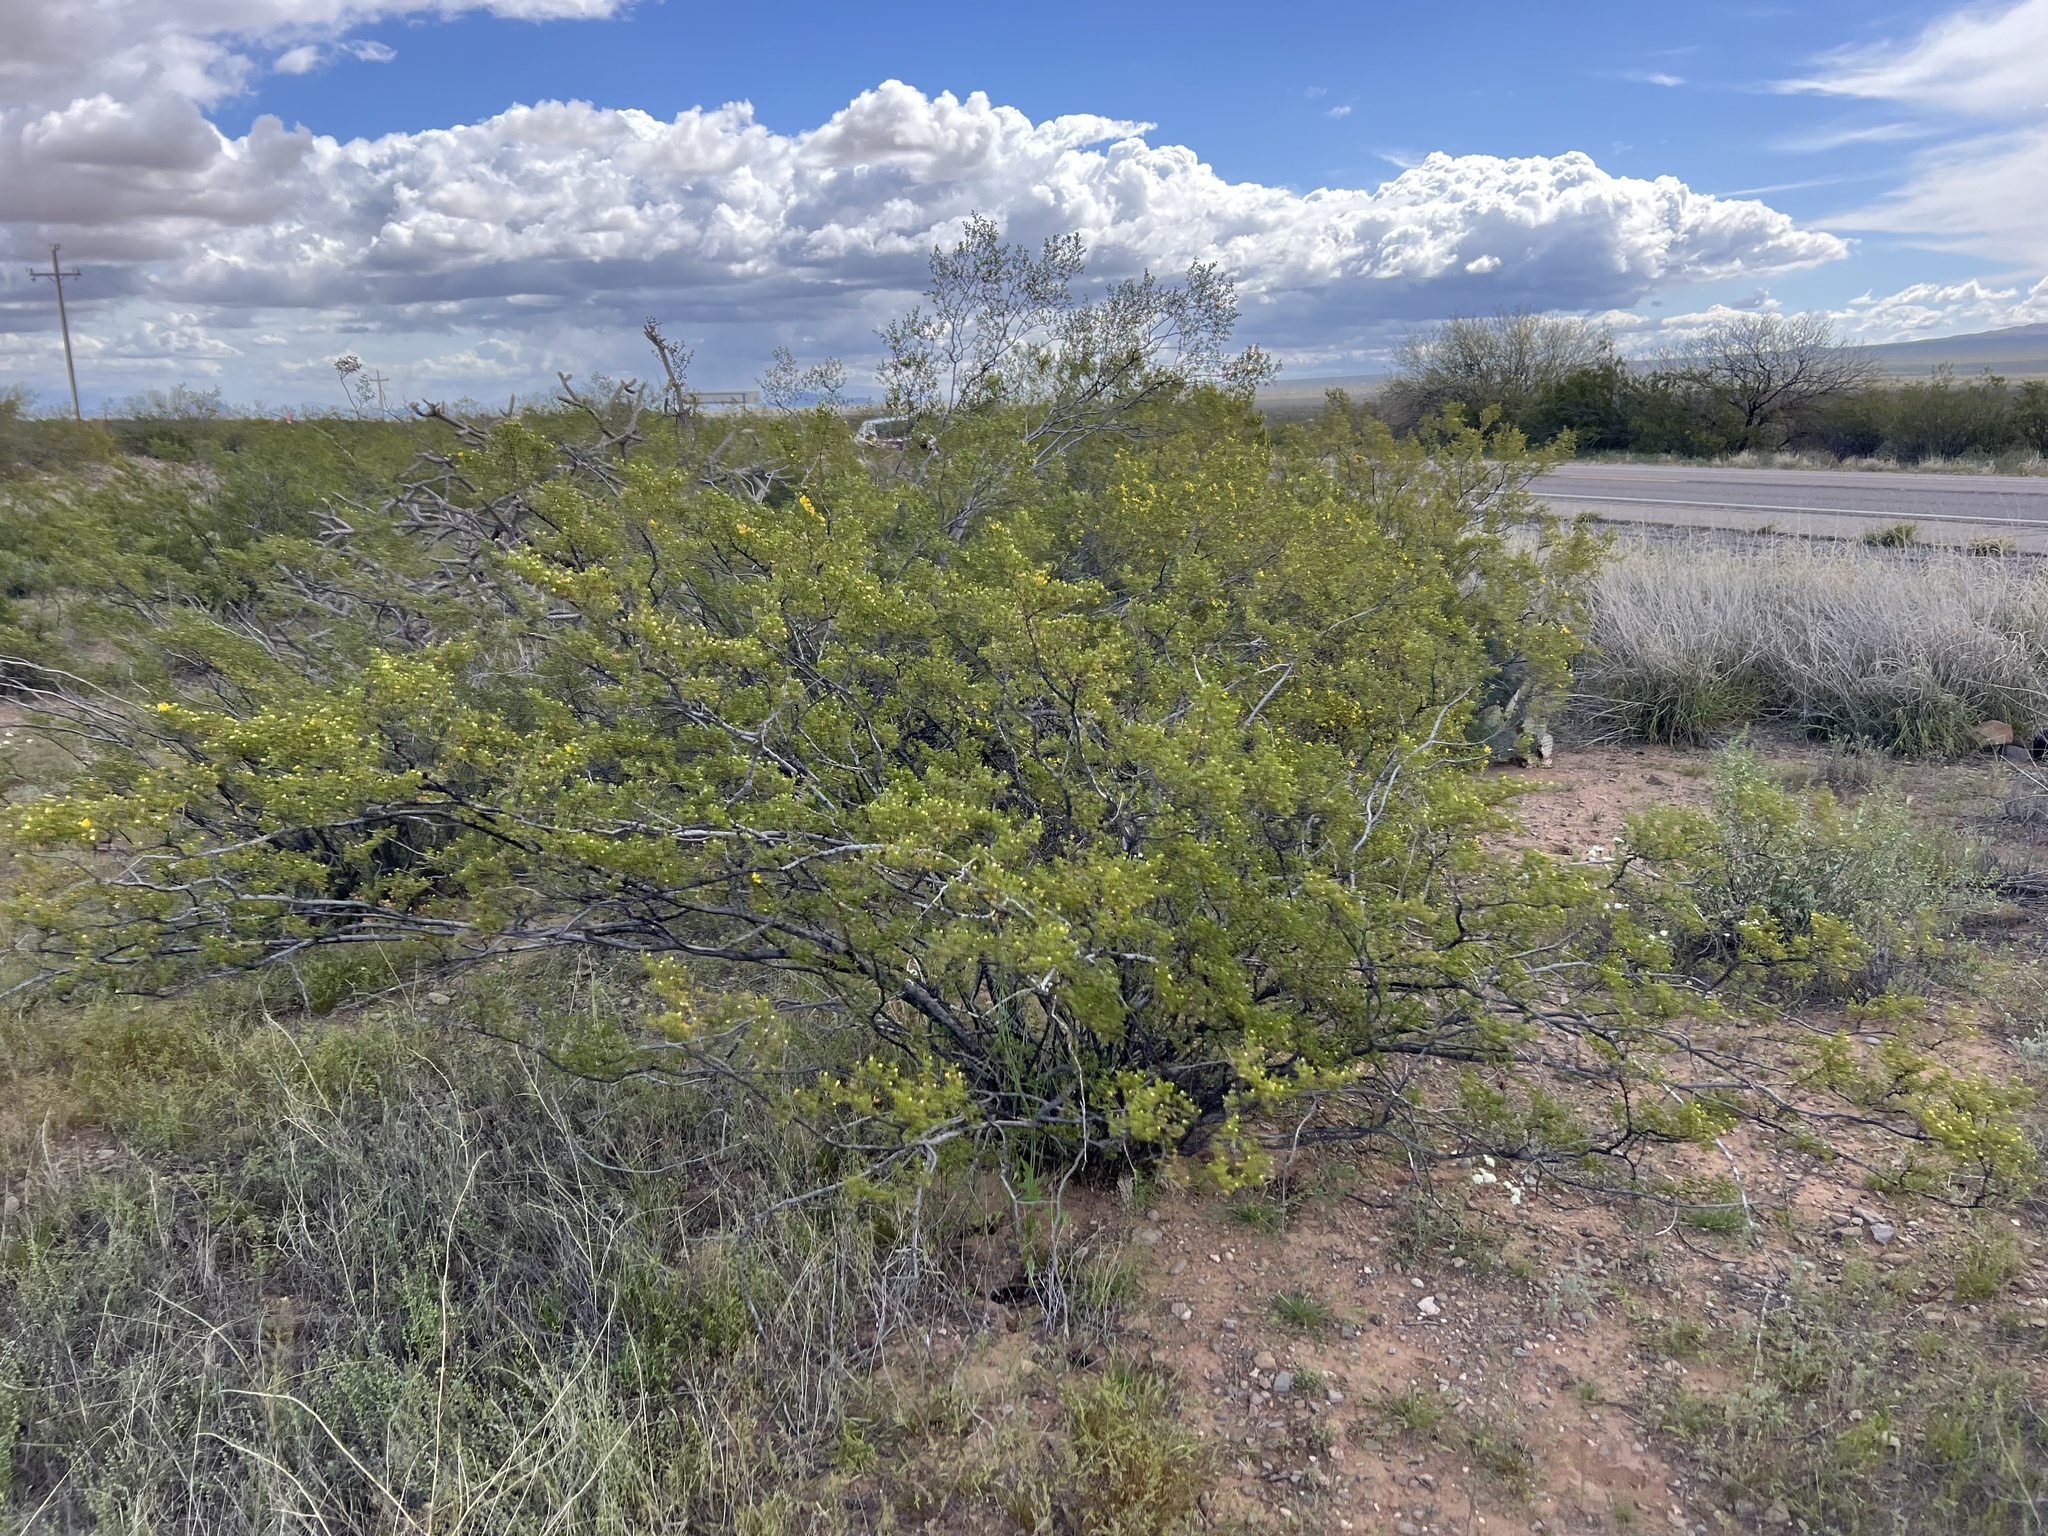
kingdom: Plantae
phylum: Tracheophyta
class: Magnoliopsida
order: Zygophyllales
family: Zygophyllaceae
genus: Larrea
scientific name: Larrea tridentata
